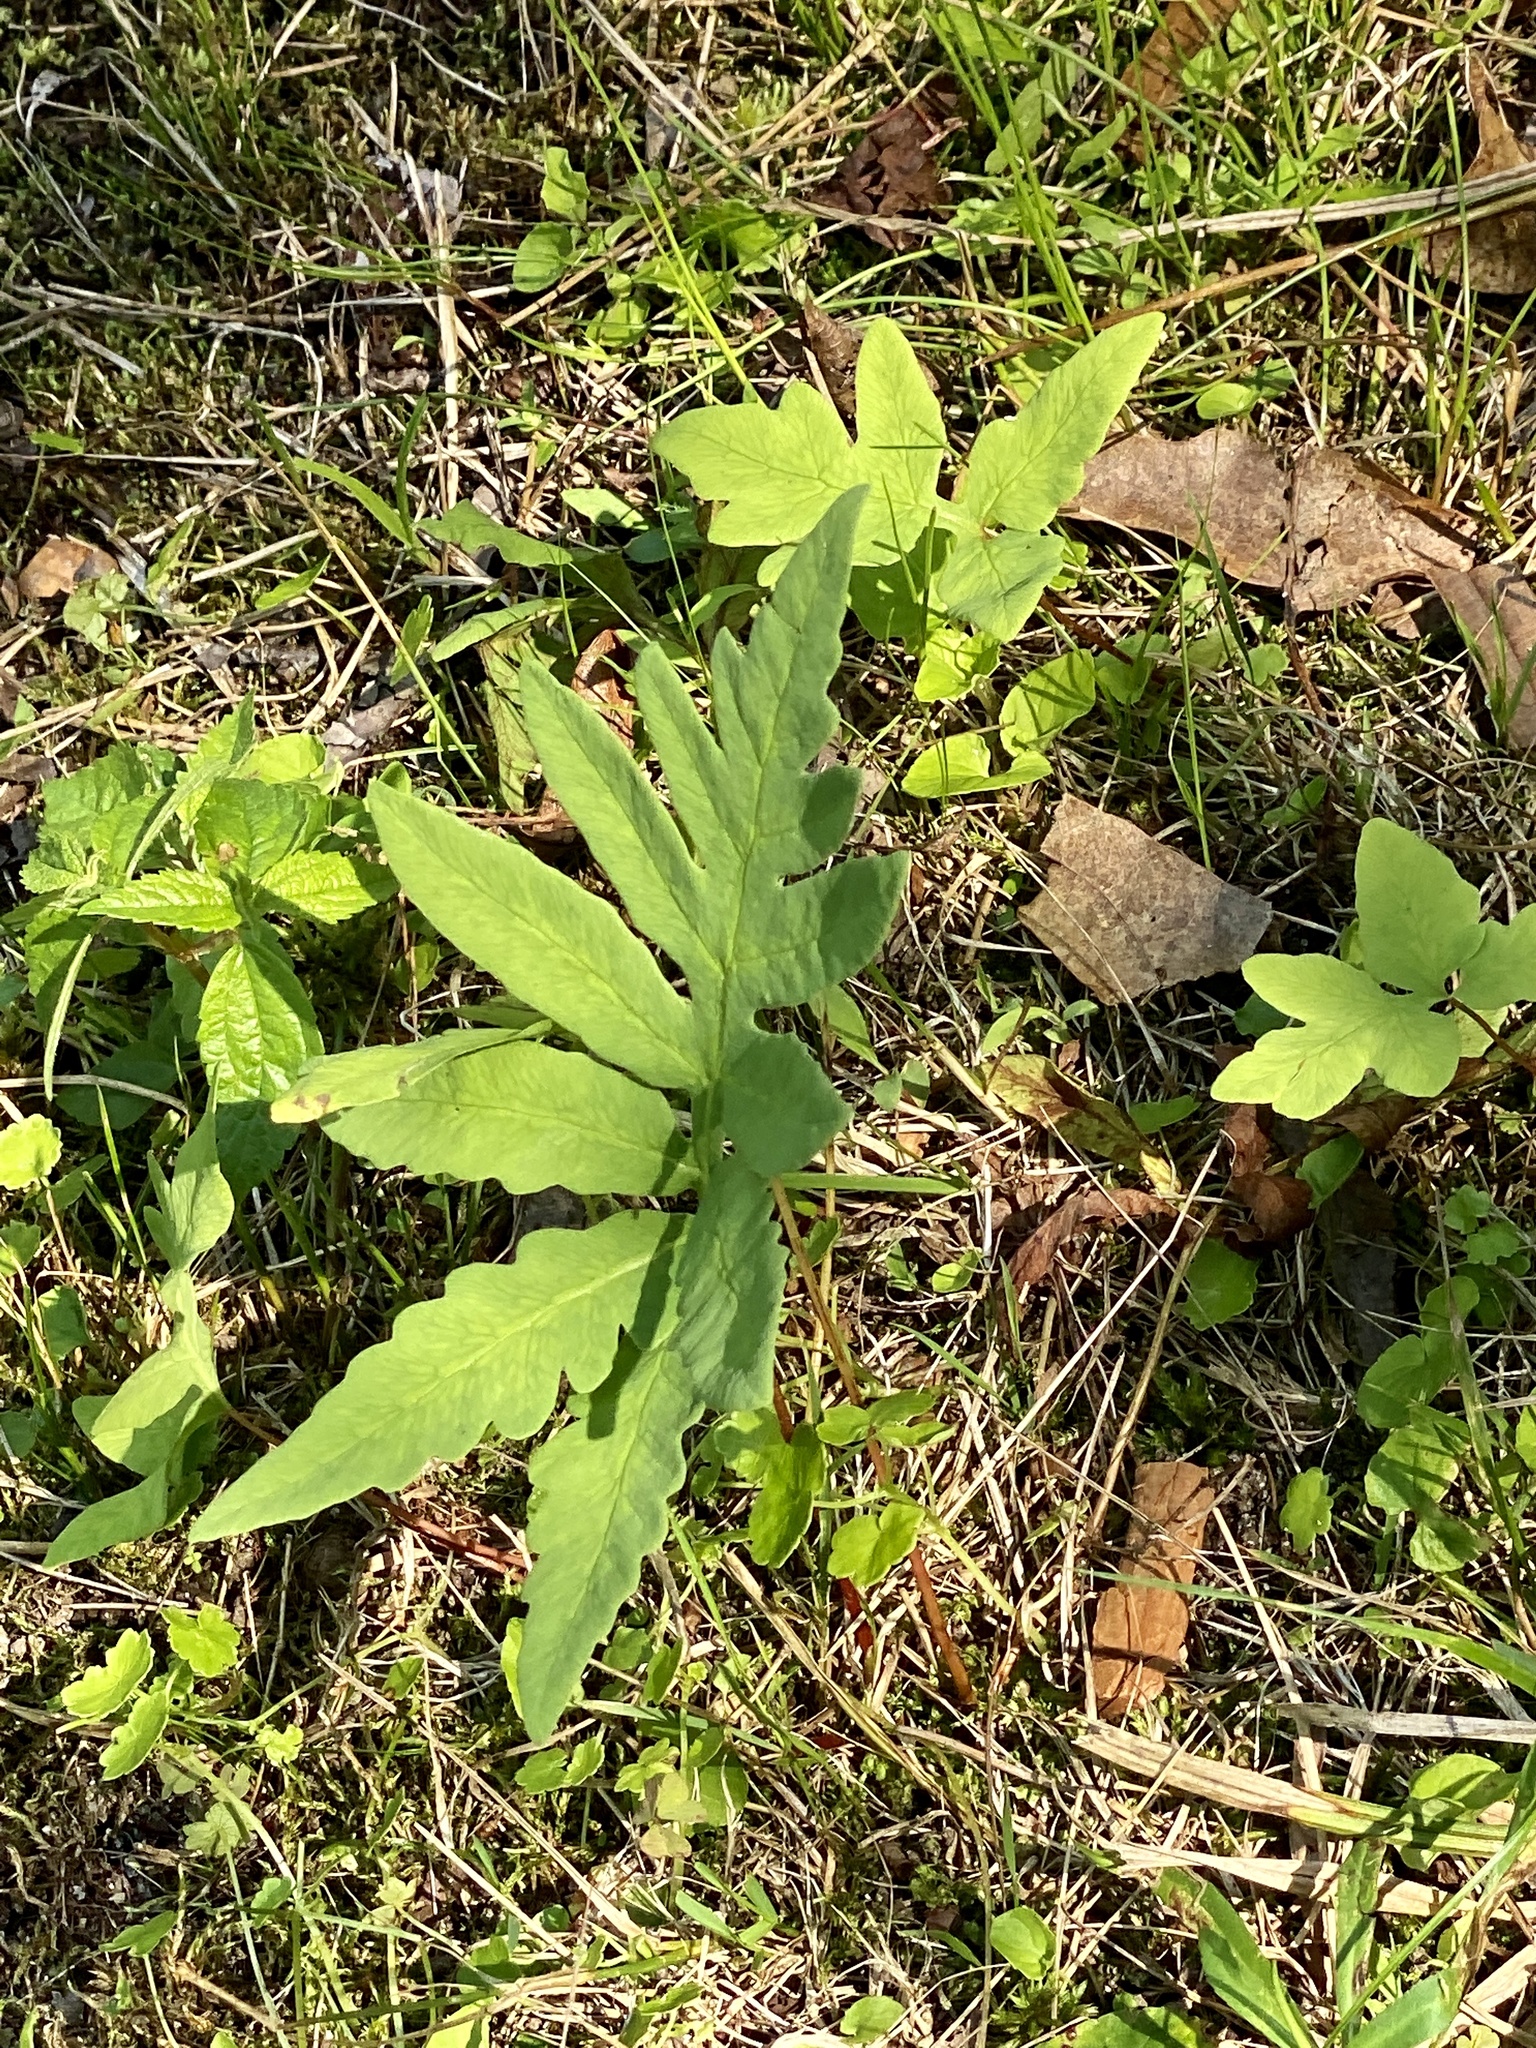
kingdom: Plantae
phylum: Tracheophyta
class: Polypodiopsida
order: Polypodiales
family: Onocleaceae
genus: Onoclea
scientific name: Onoclea sensibilis
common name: Sensitive fern
